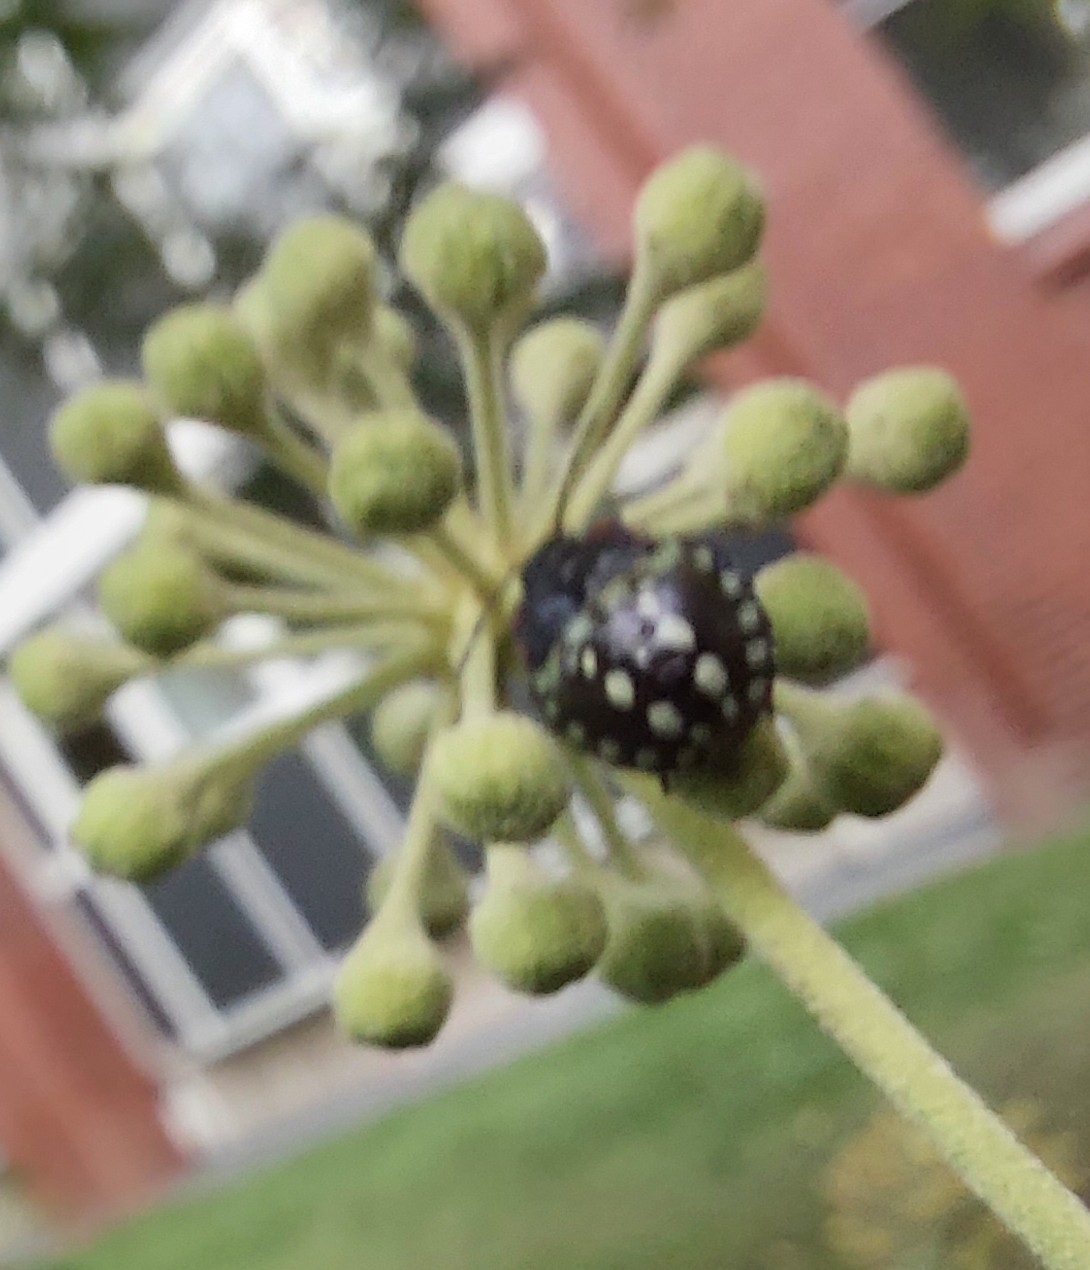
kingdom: Animalia
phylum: Arthropoda
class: Insecta
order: Hemiptera
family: Pentatomidae
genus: Nezara
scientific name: Nezara viridula
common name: Southern green stink bug
